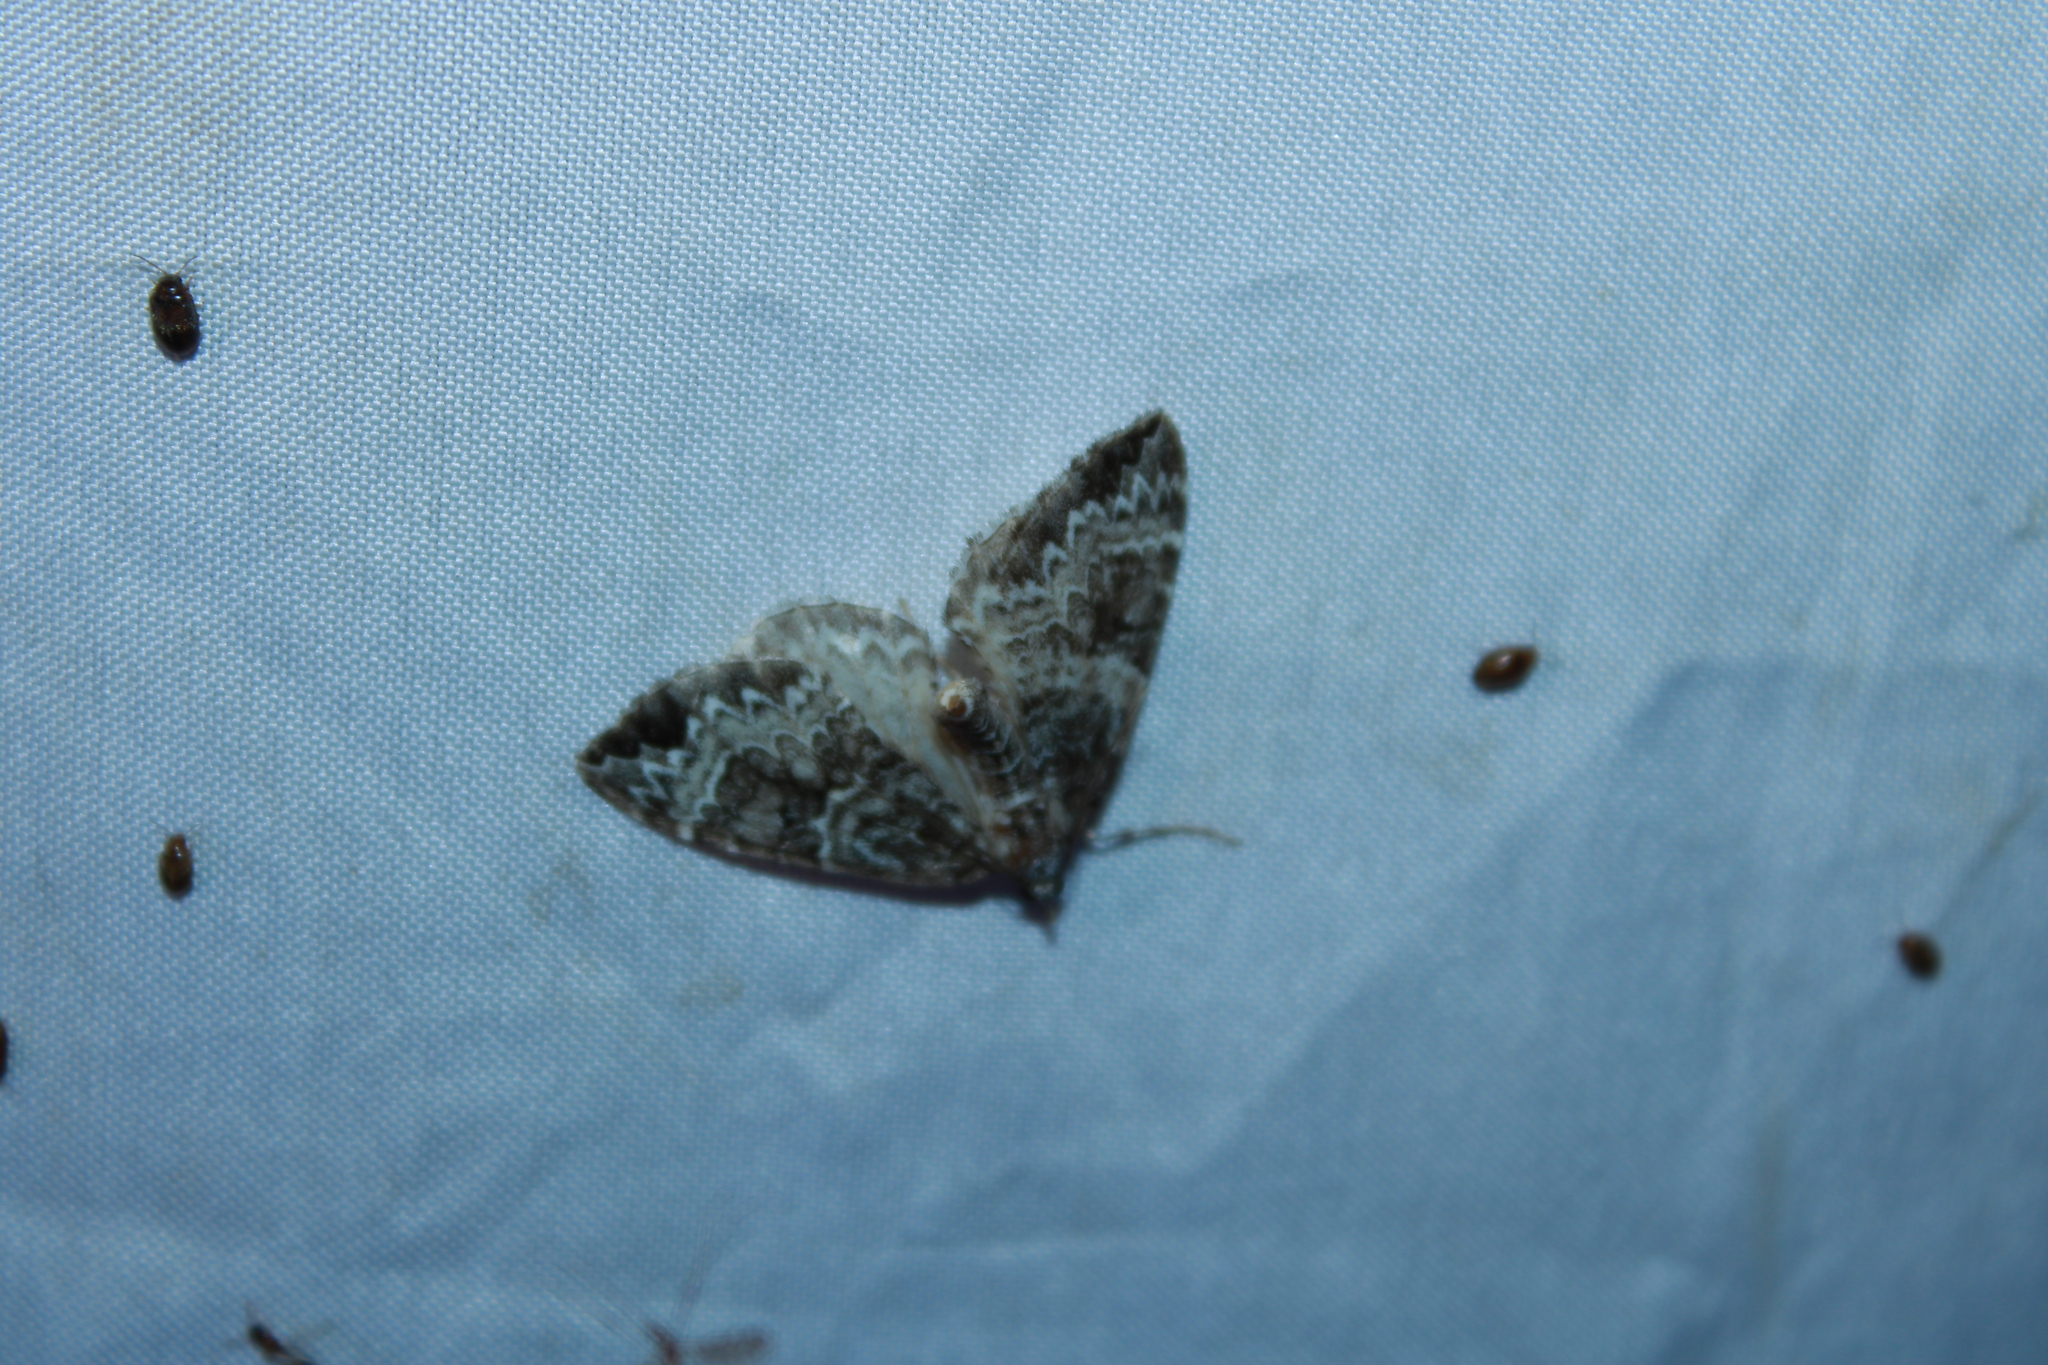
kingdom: Animalia
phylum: Arthropoda
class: Insecta
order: Lepidoptera
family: Geometridae
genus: Eulithis
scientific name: Eulithis explanata
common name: White eulithis
